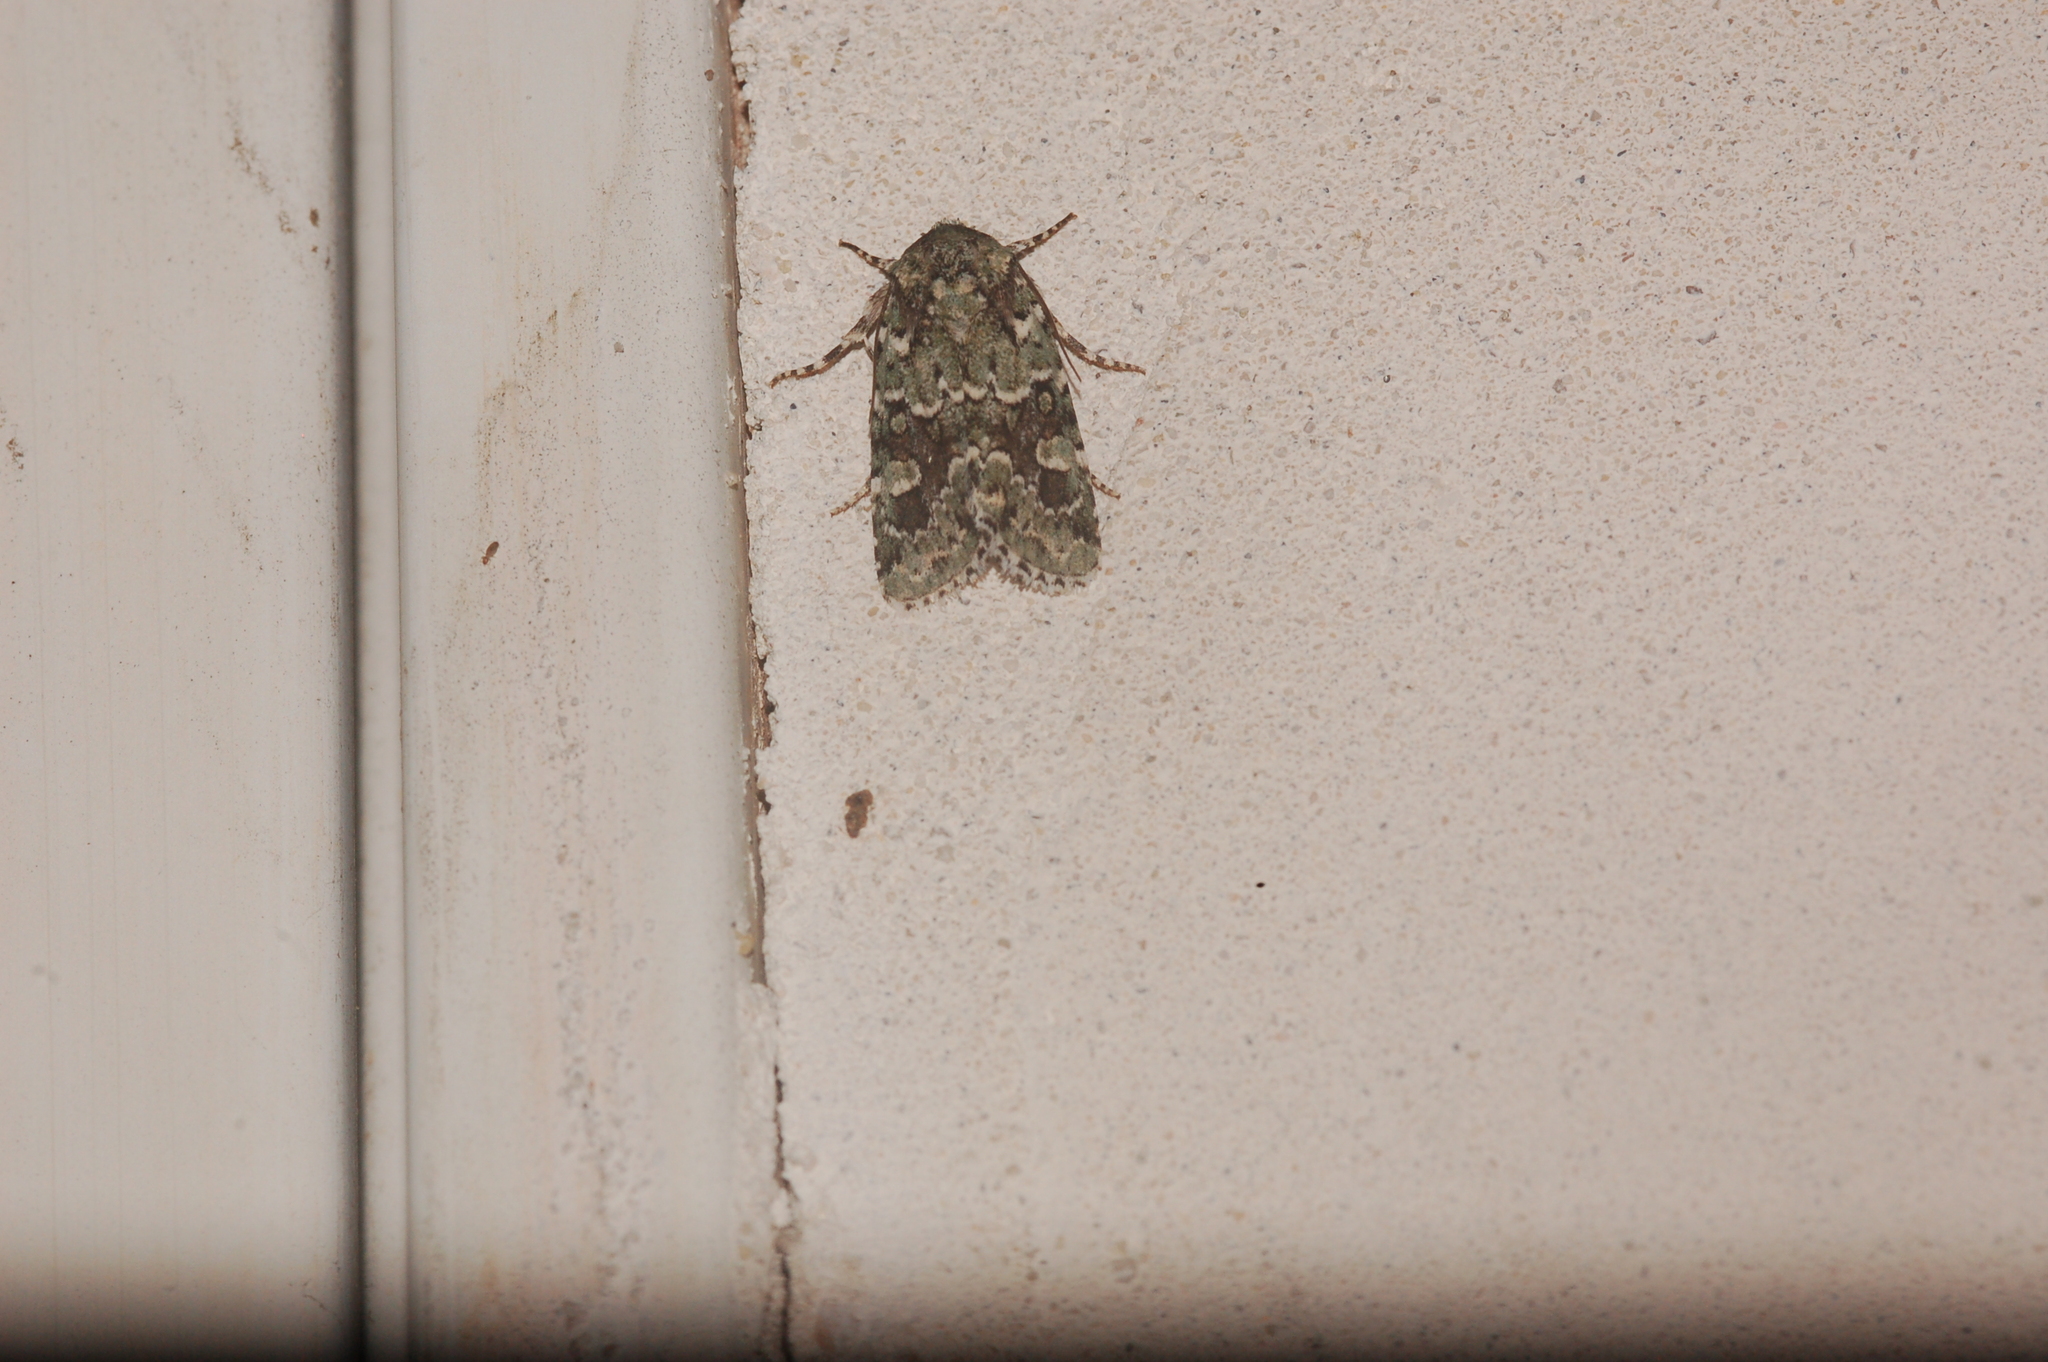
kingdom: Animalia
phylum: Arthropoda
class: Insecta
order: Lepidoptera
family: Noctuidae
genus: Lacinipolia
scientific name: Lacinipolia laudabilis
